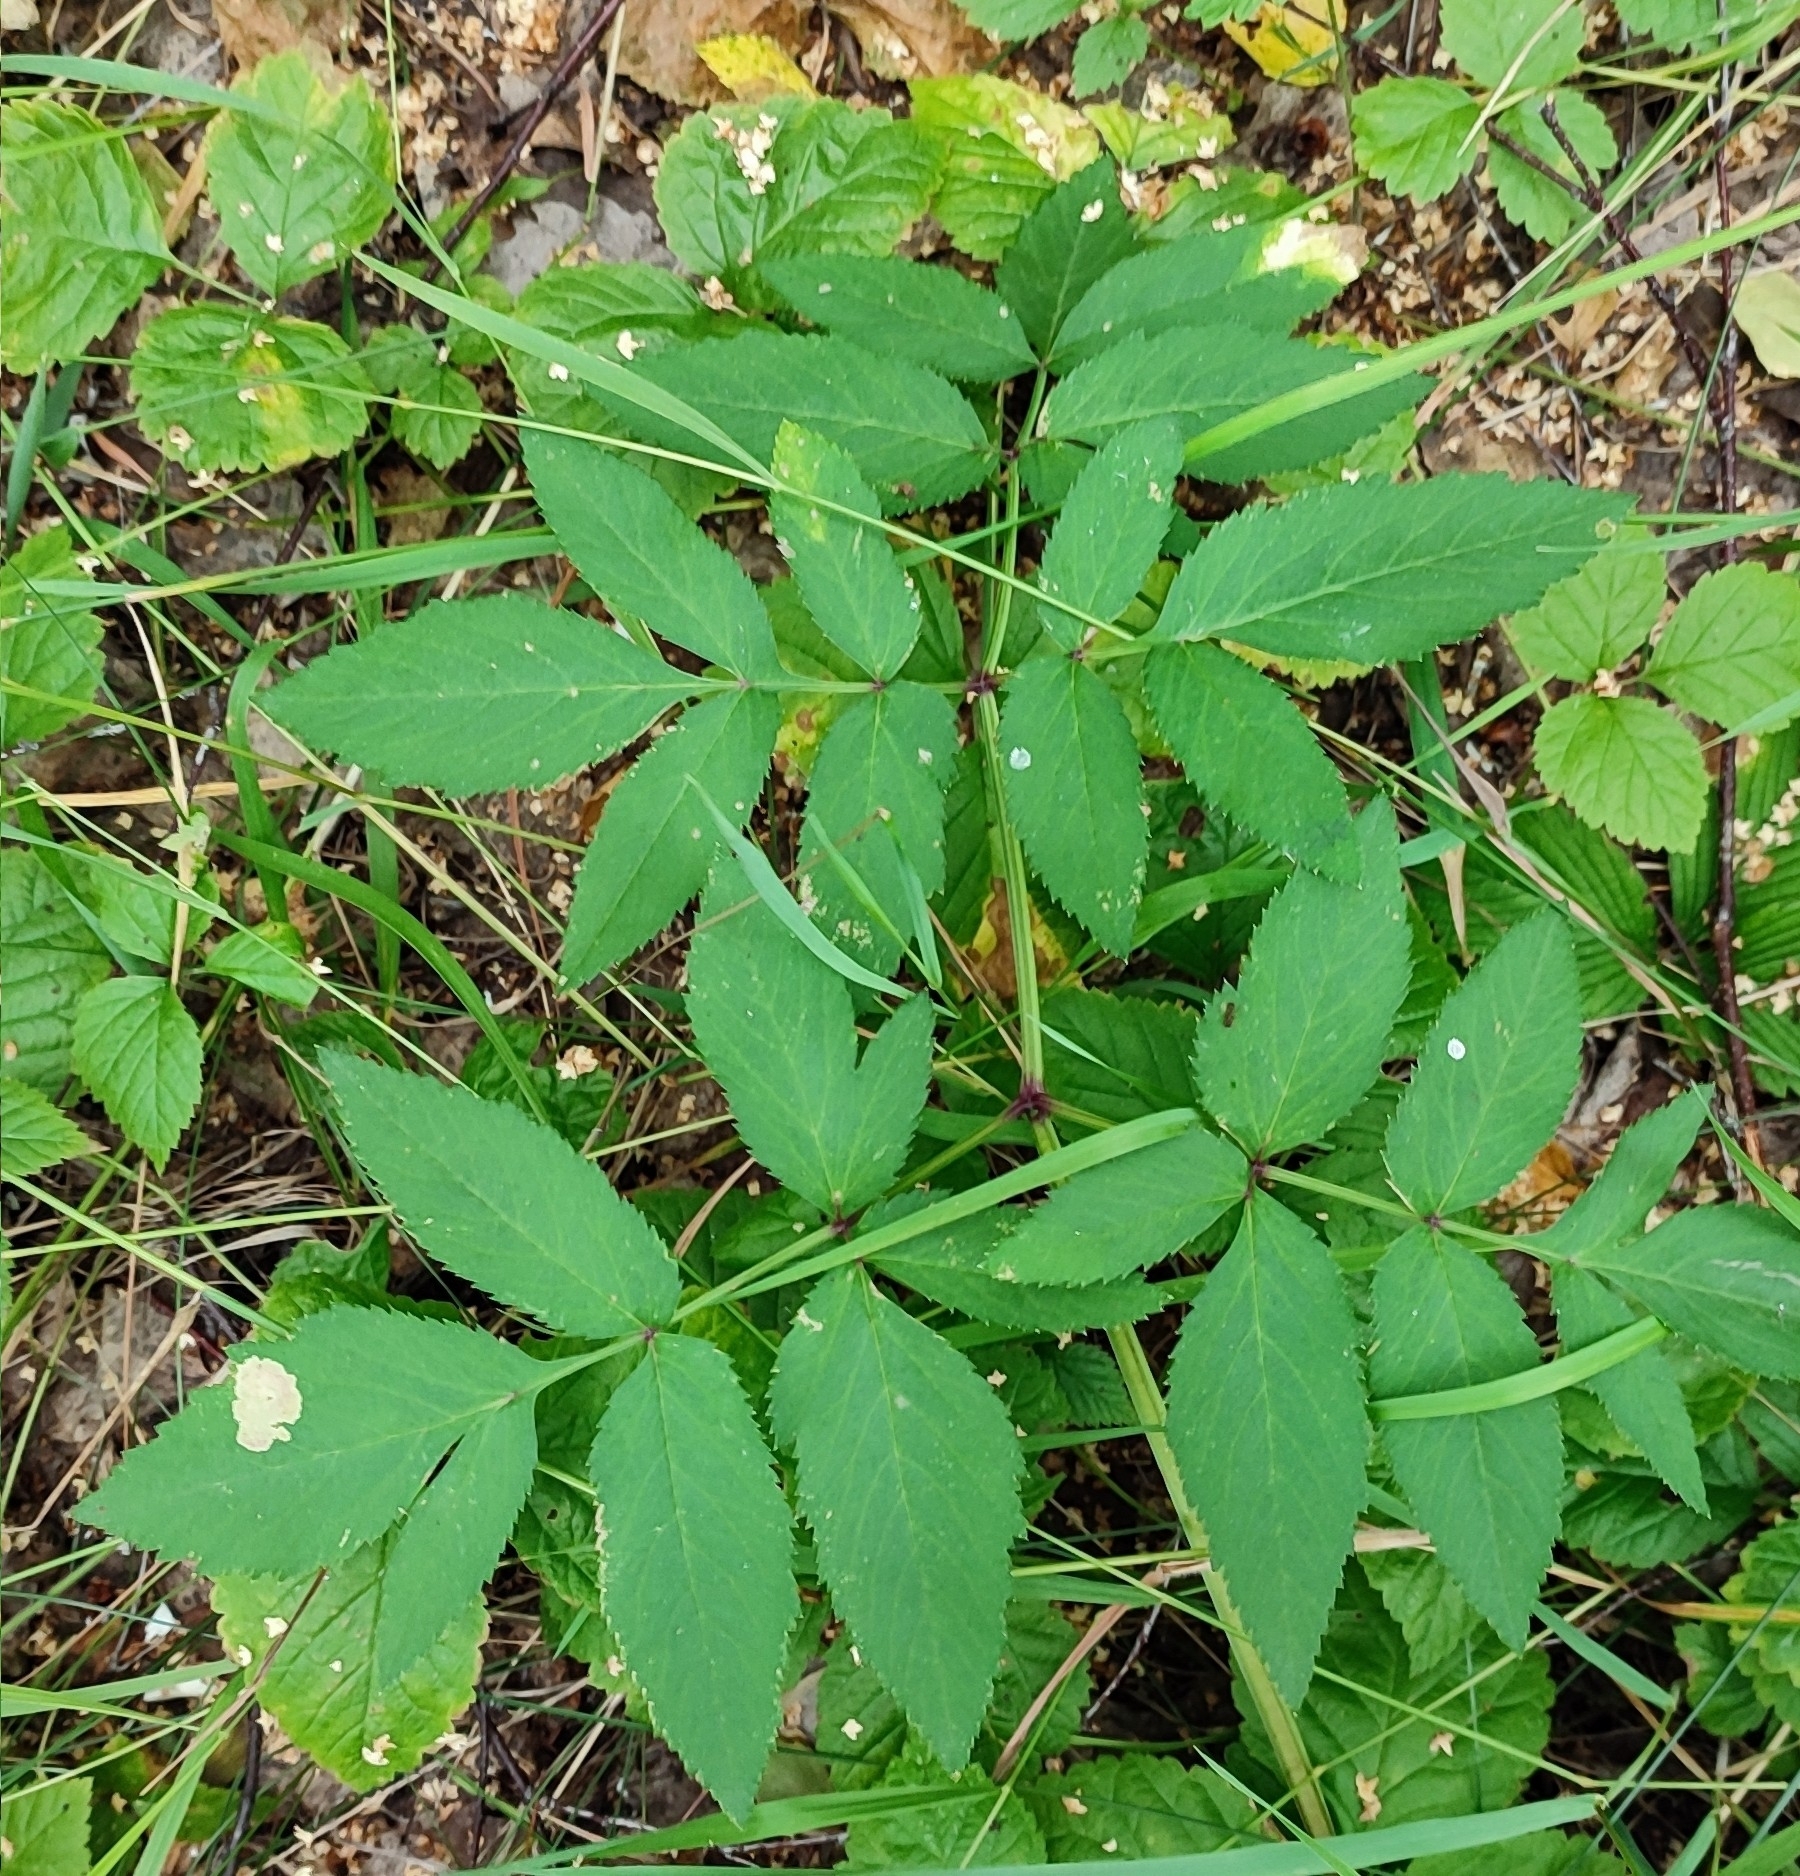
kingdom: Plantae
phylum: Tracheophyta
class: Magnoliopsida
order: Apiales
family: Apiaceae
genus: Angelica
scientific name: Angelica sylvestris
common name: Wild angelica
